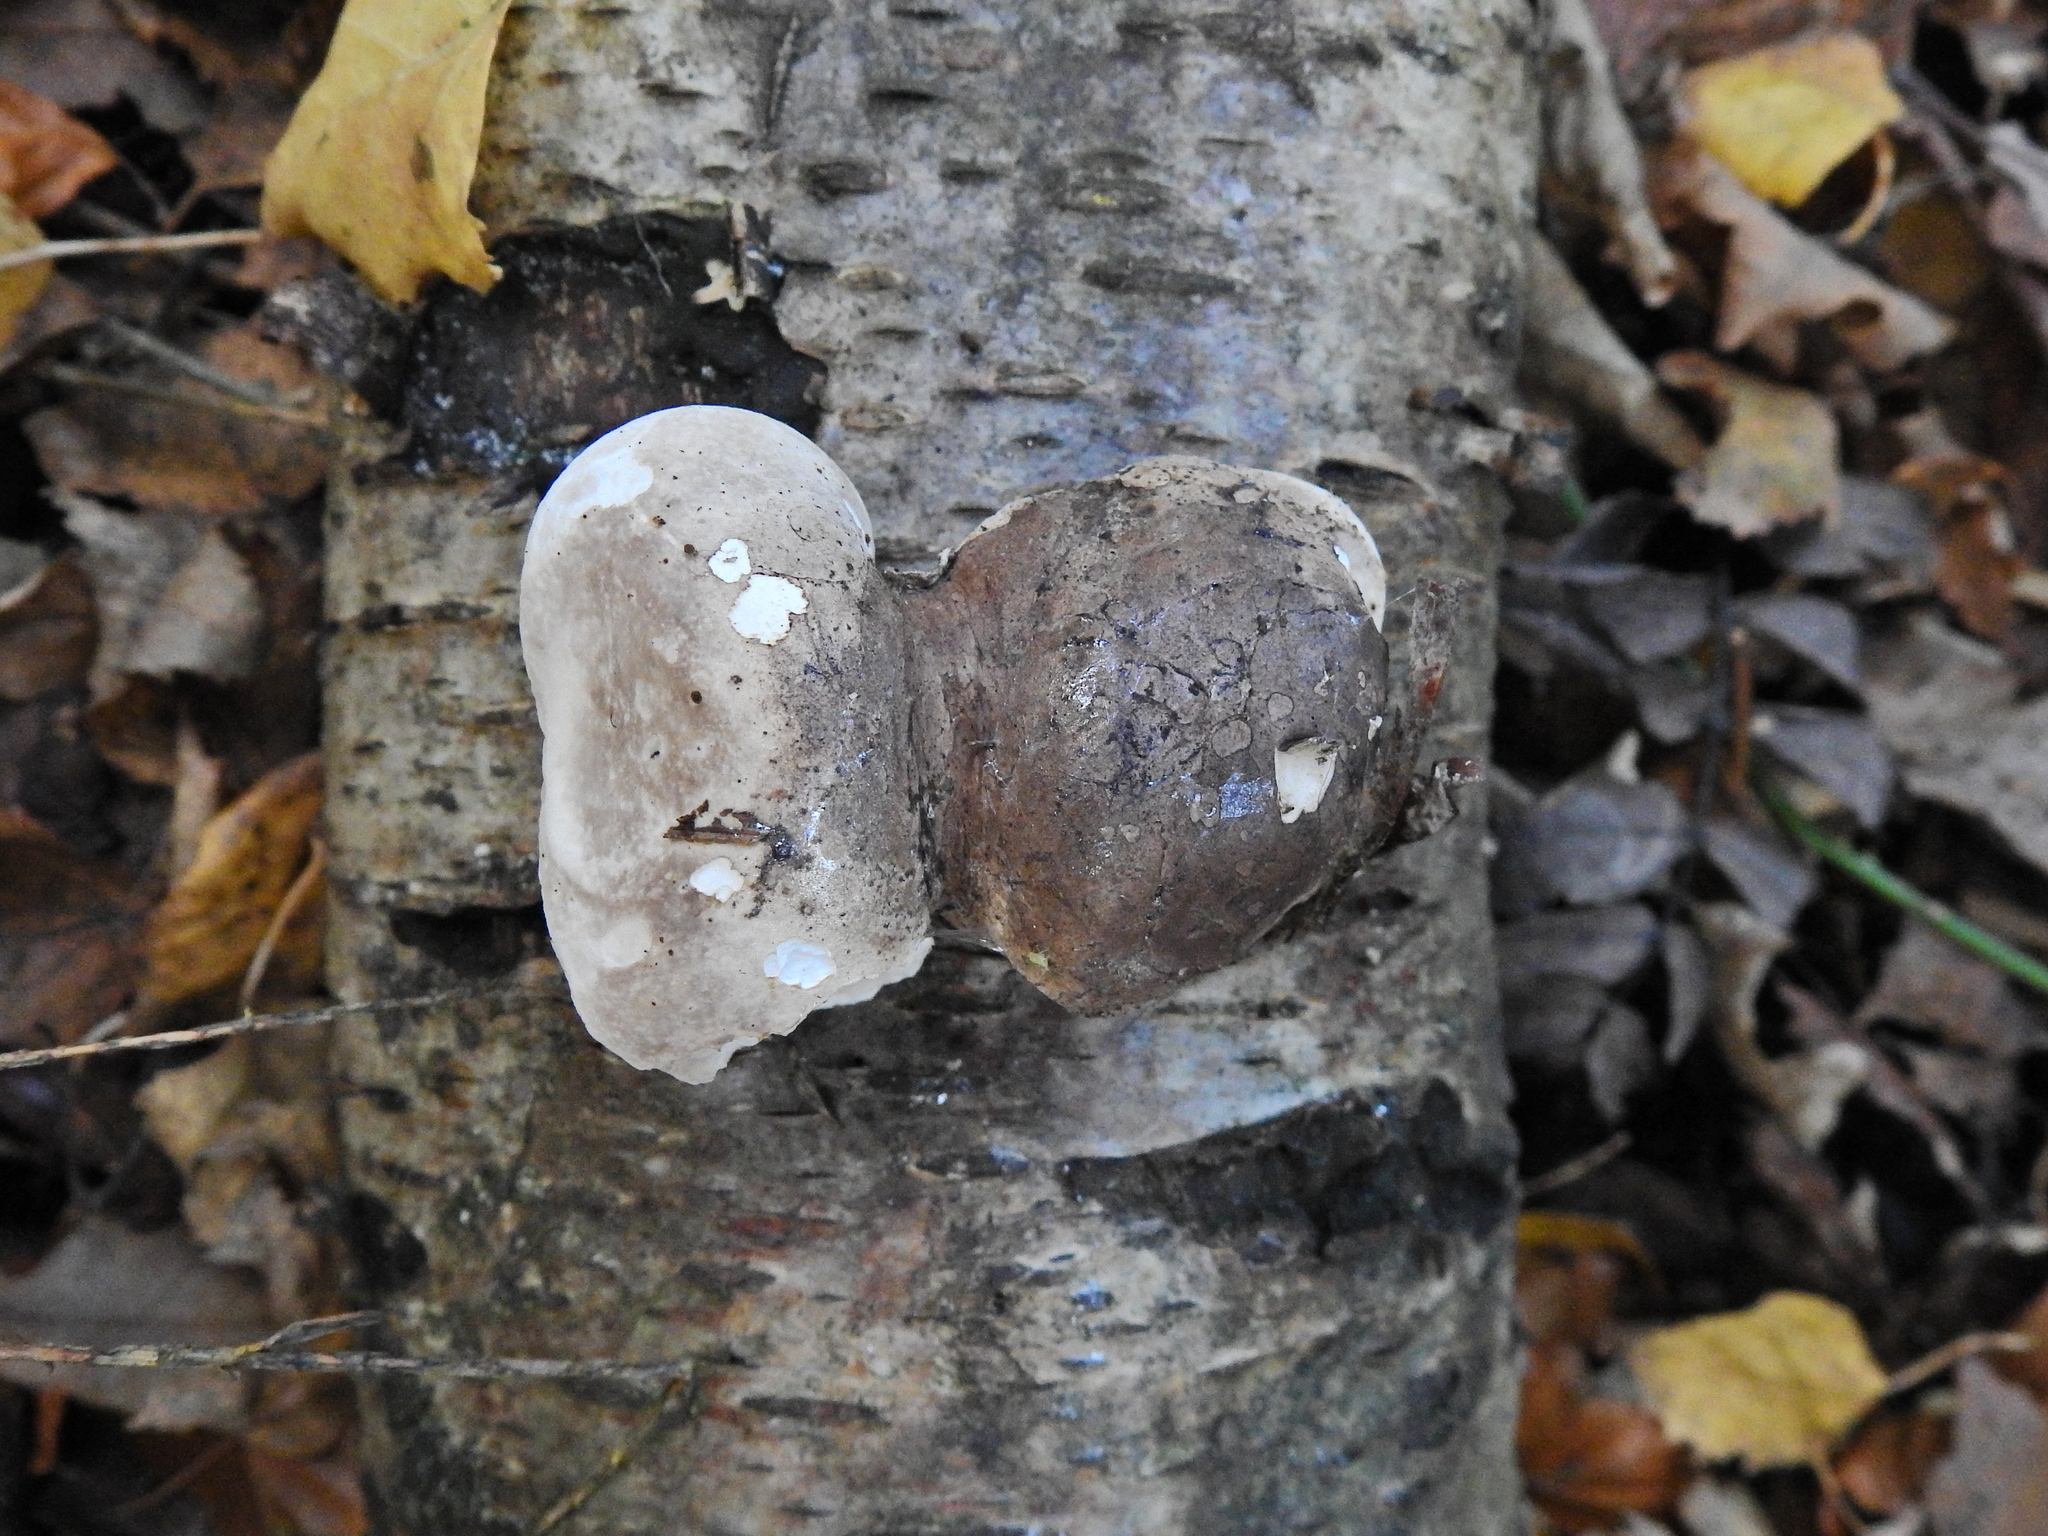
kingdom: Fungi
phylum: Basidiomycota
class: Agaricomycetes
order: Polyporales
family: Fomitopsidaceae
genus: Fomitopsis
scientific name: Fomitopsis betulina
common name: Birch polypore
